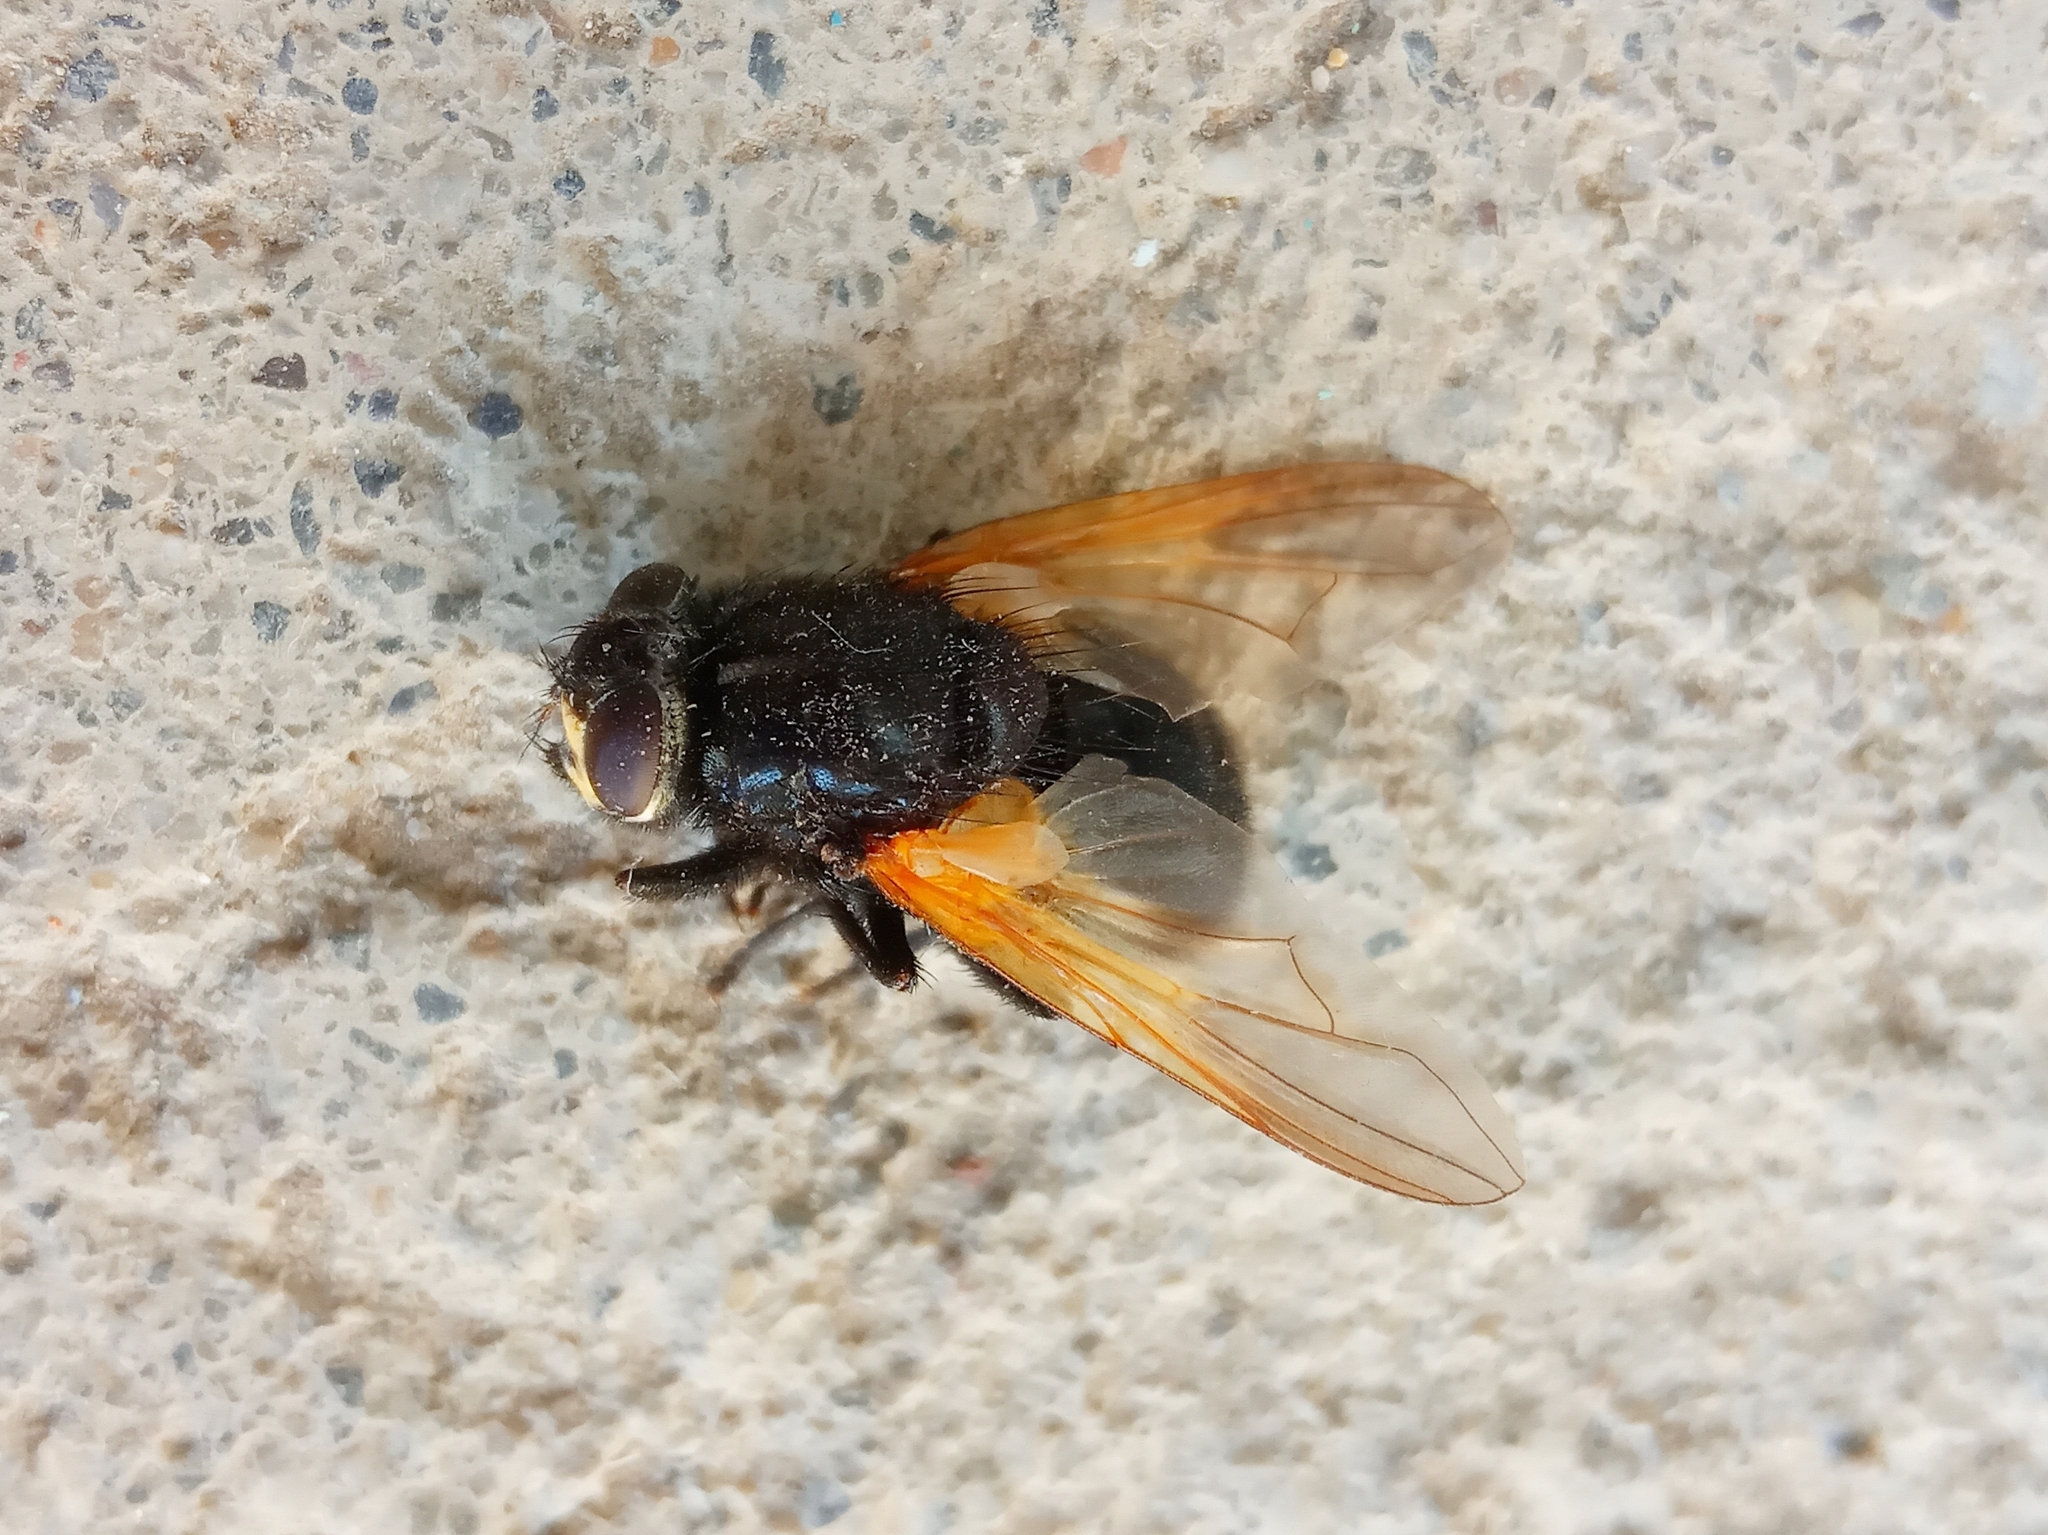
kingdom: Animalia
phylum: Arthropoda
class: Insecta
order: Diptera
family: Muscidae
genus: Mesembrina
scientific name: Mesembrina meridiana
